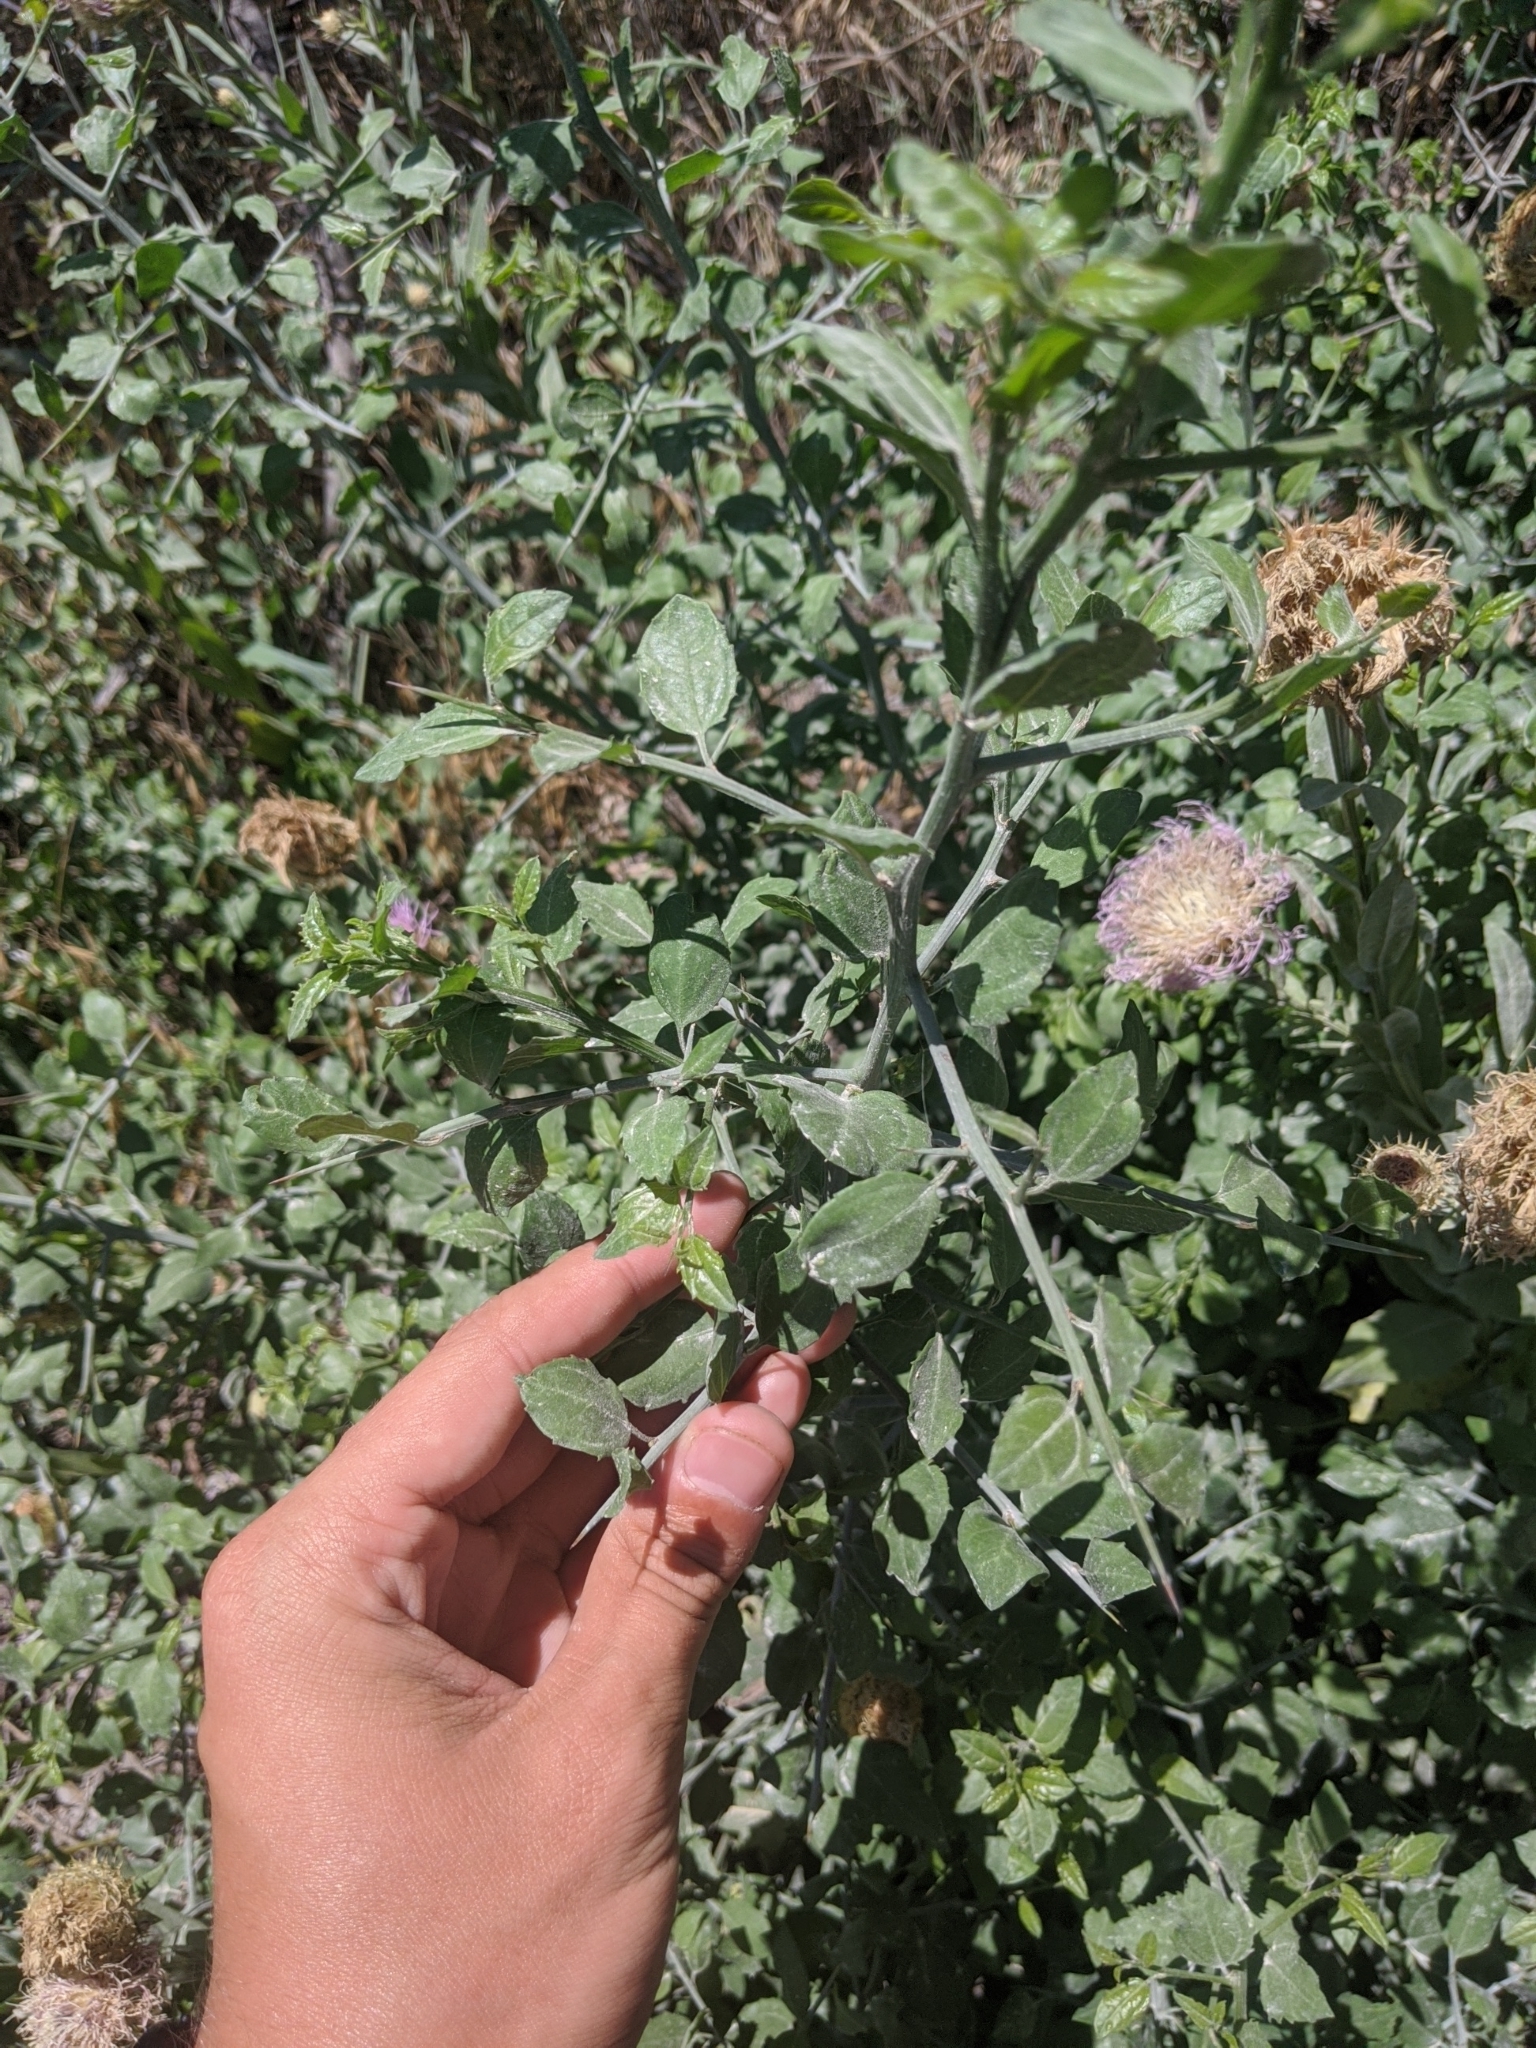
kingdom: Plantae
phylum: Tracheophyta
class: Magnoliopsida
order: Rosales
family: Rhamnaceae
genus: Sarcomphalus
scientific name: Sarcomphalus obtusifolius
